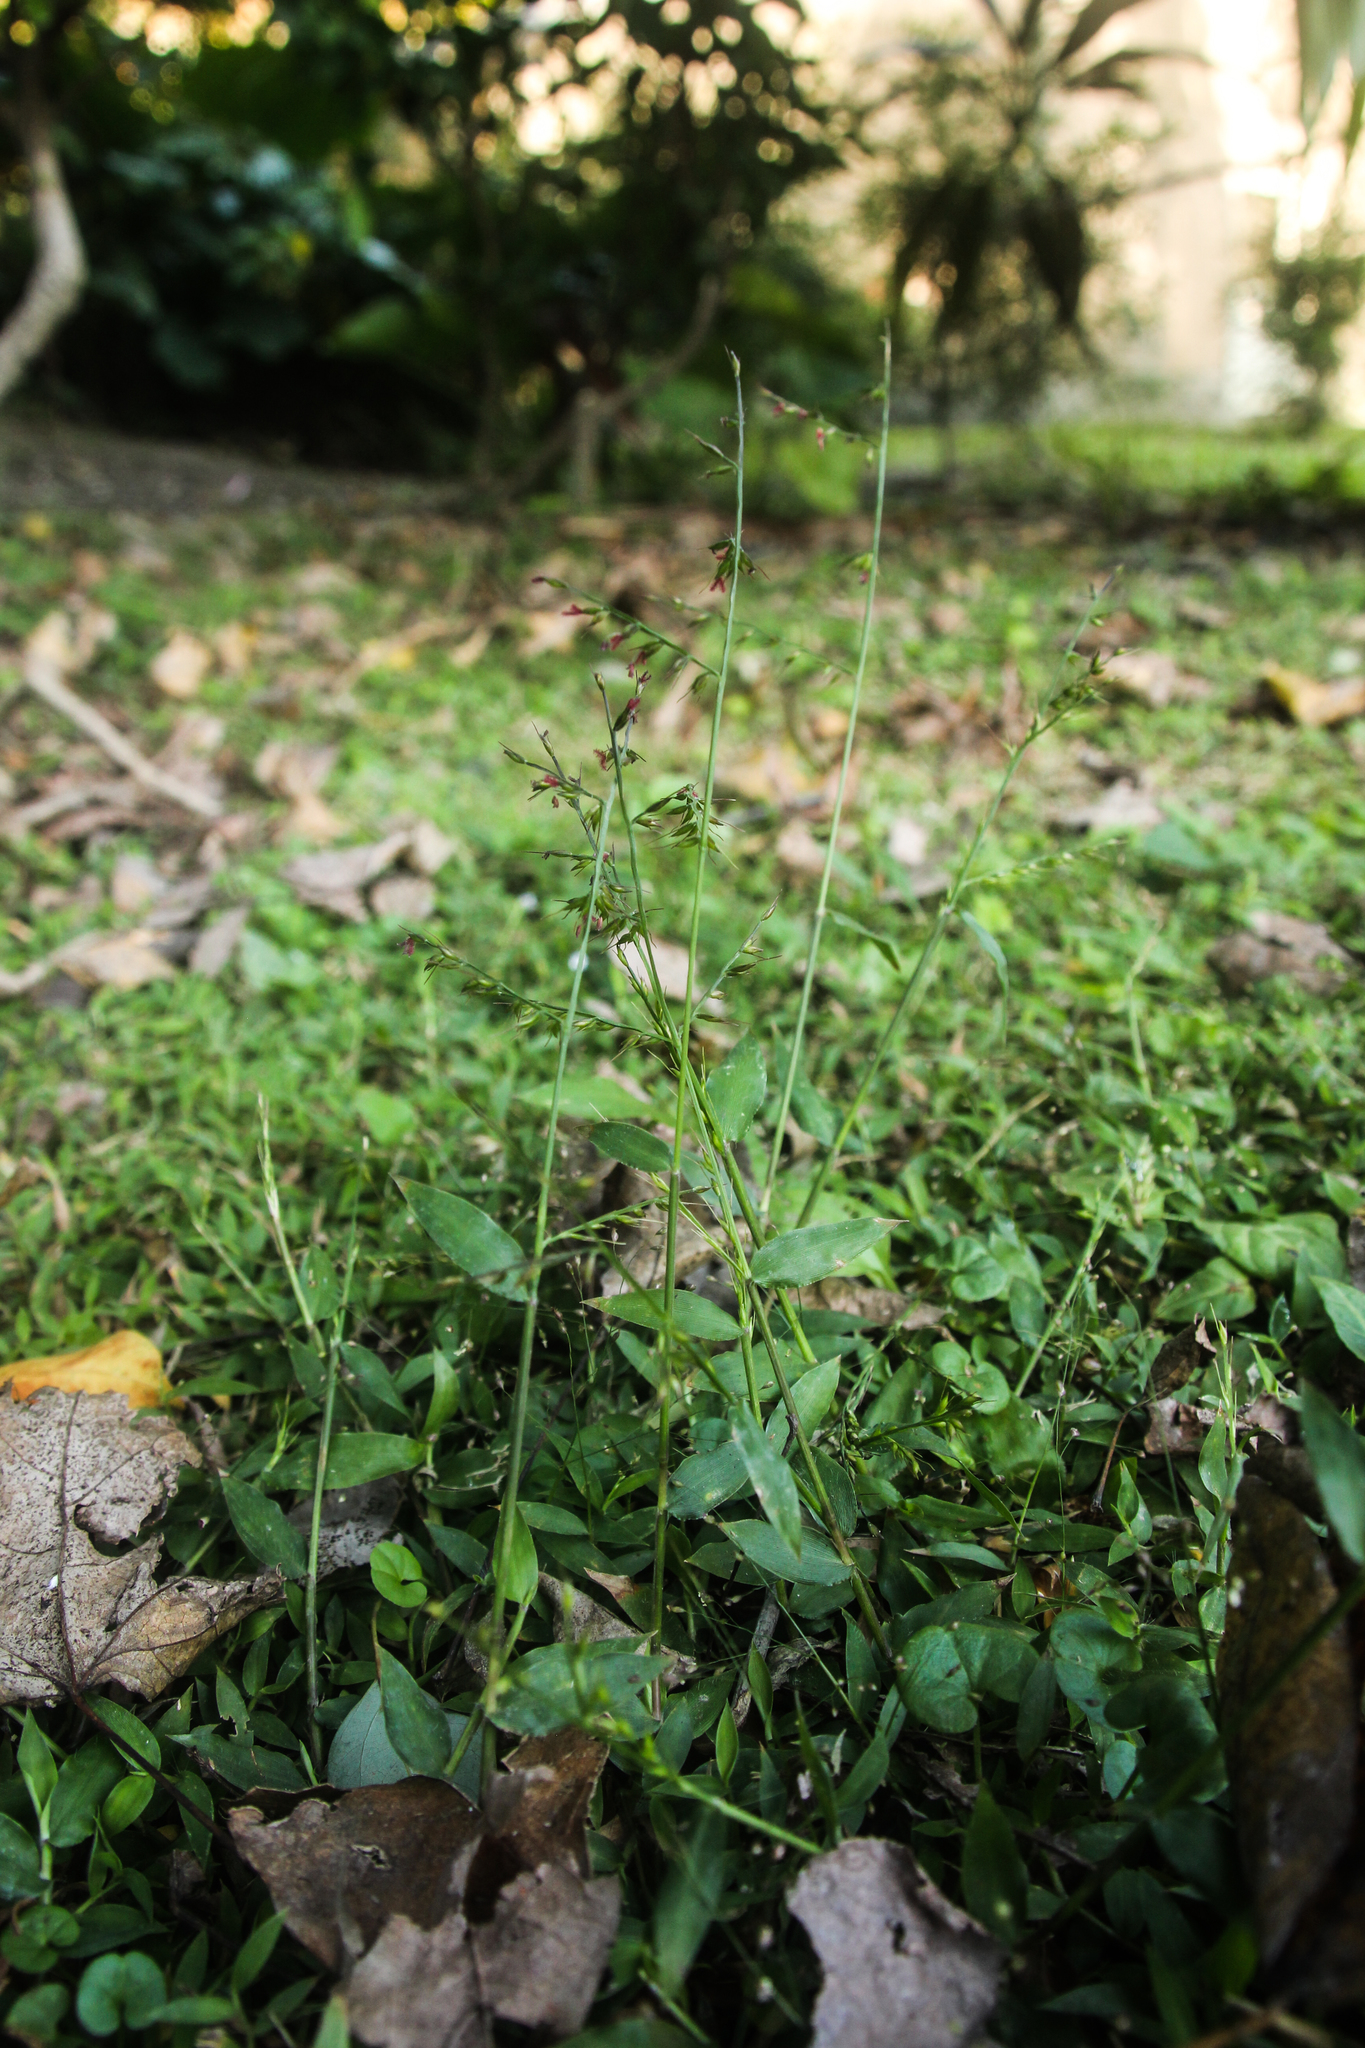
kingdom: Plantae
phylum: Tracheophyta
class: Liliopsida
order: Poales
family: Poaceae
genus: Oplismenus
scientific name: Oplismenus compositus
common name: Running mountain grass
